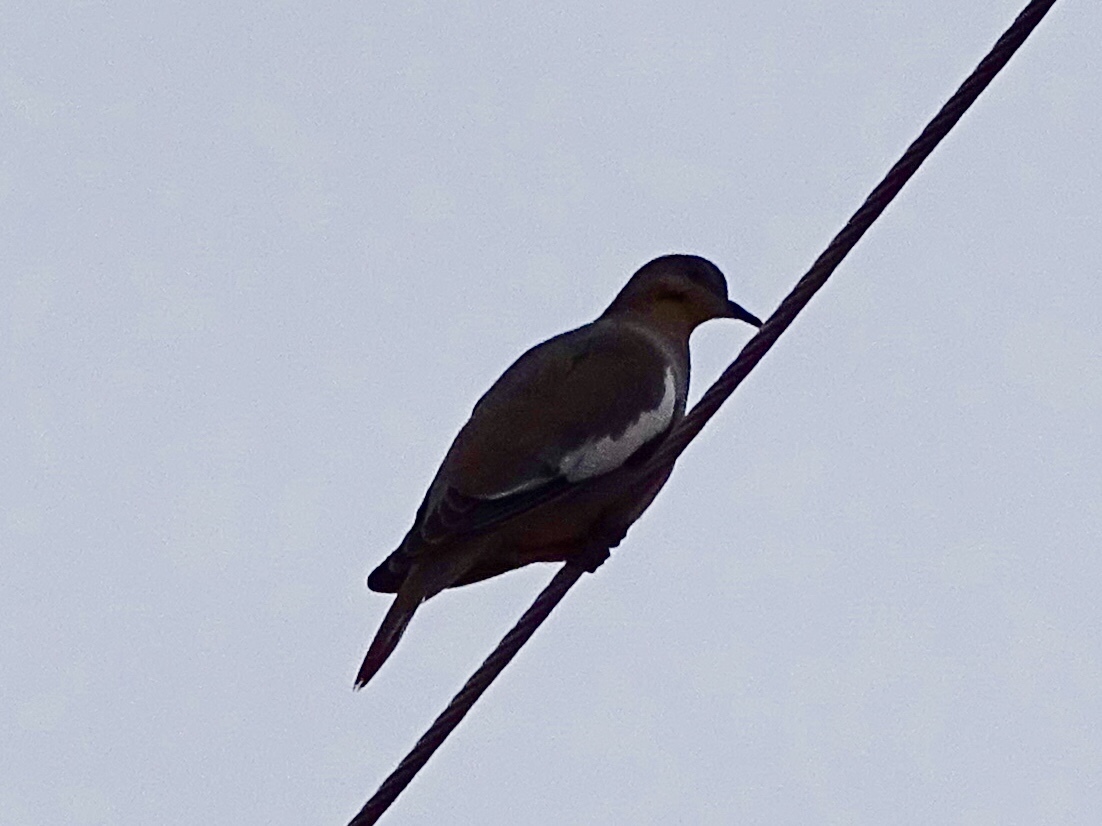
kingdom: Animalia
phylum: Chordata
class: Aves
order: Columbiformes
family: Columbidae
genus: Zenaida
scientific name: Zenaida asiatica
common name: White-winged dove
